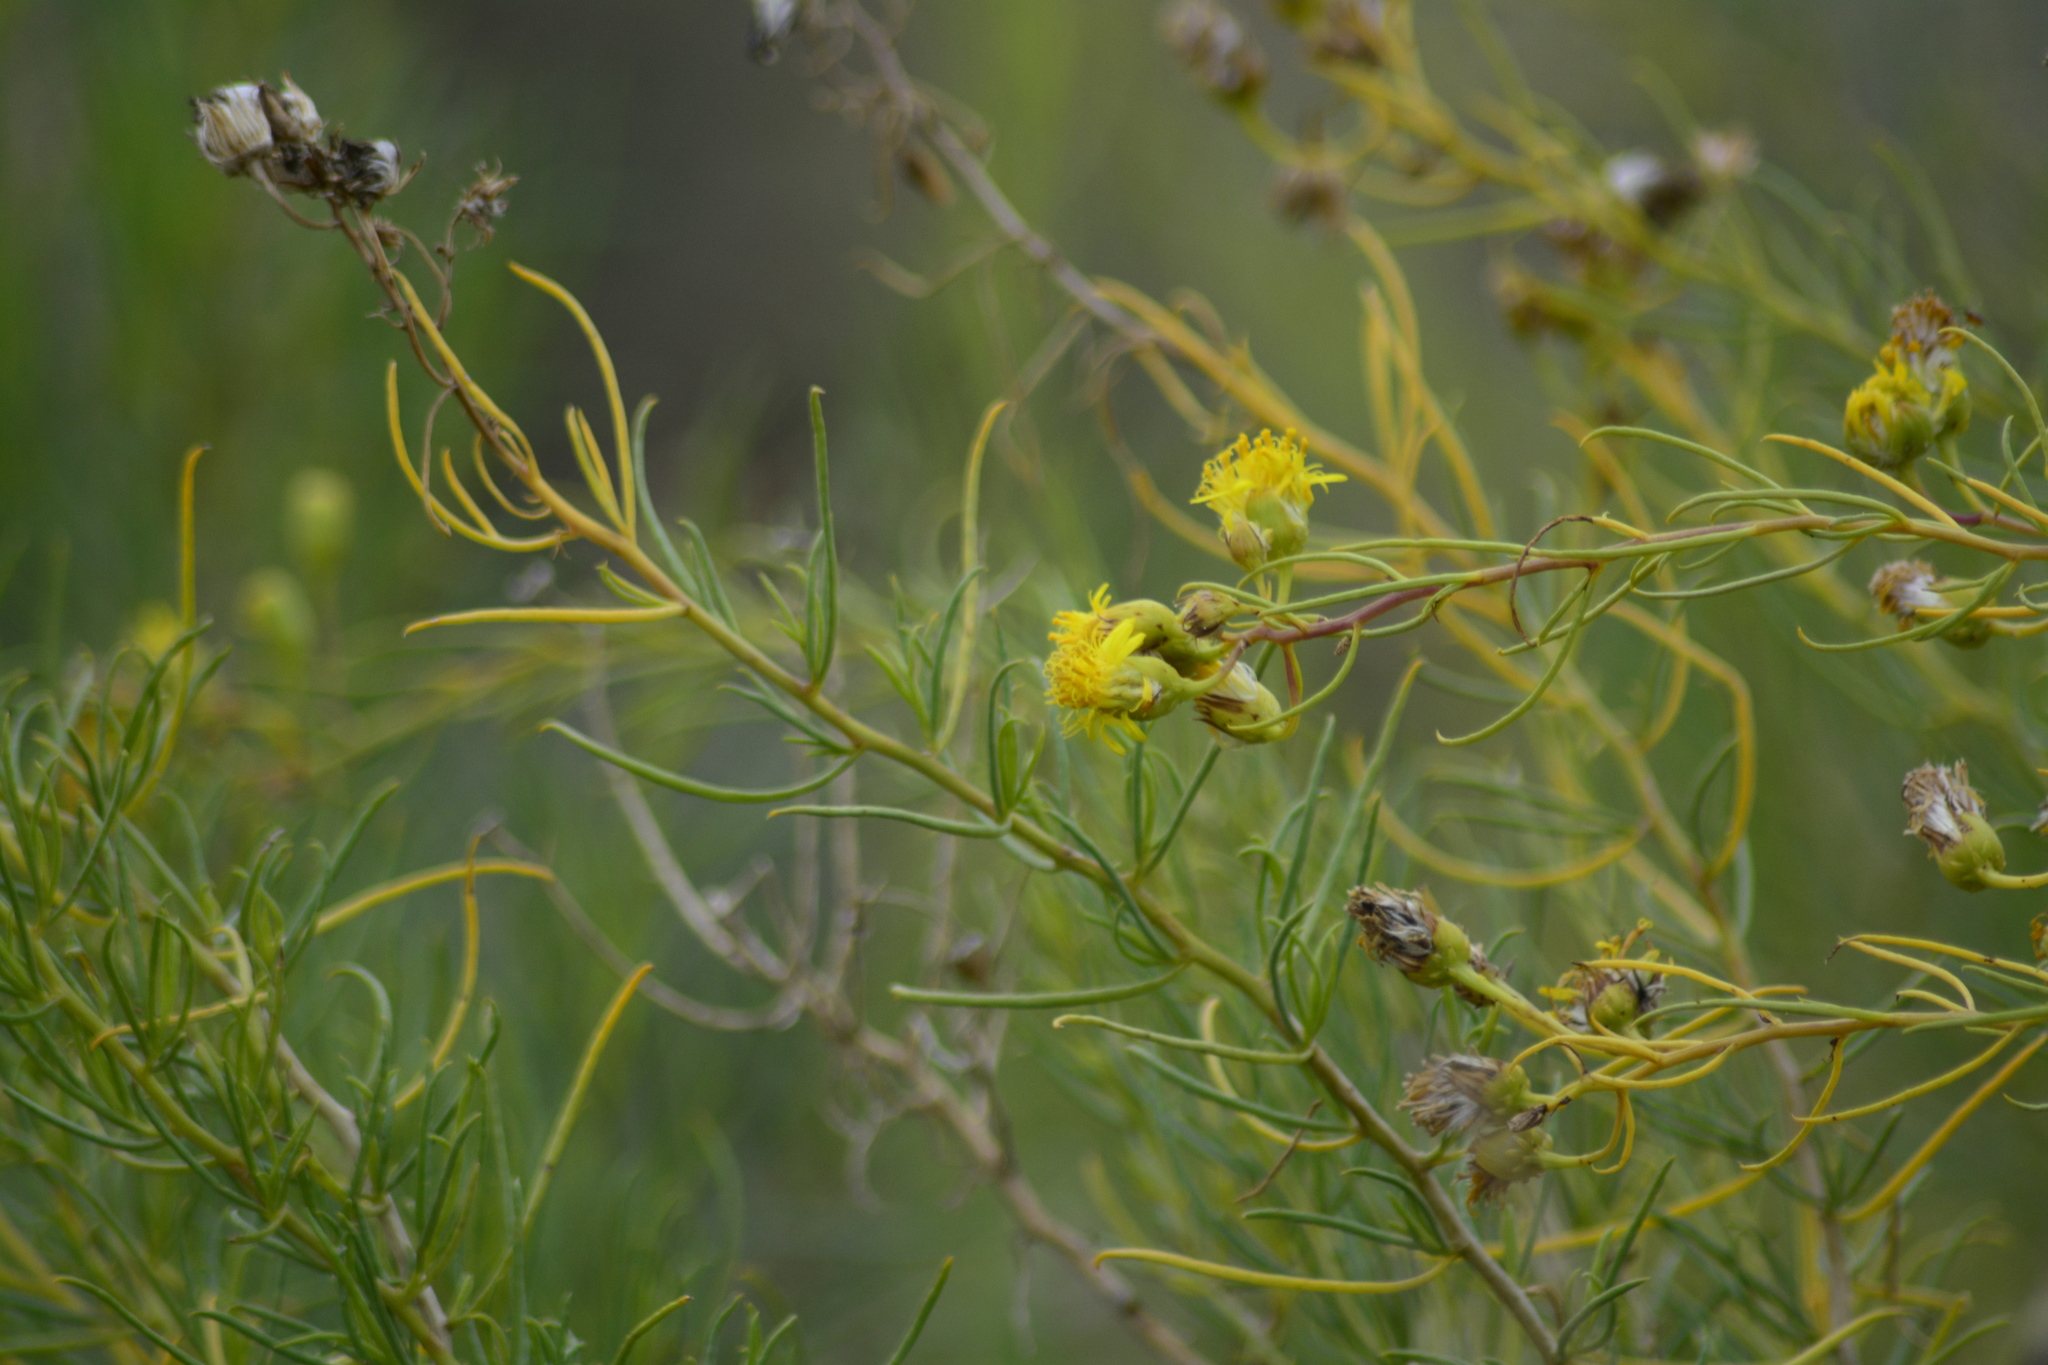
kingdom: Plantae
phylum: Tracheophyta
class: Magnoliopsida
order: Asterales
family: Asteraceae
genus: Senecio
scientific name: Senecio subulatus
